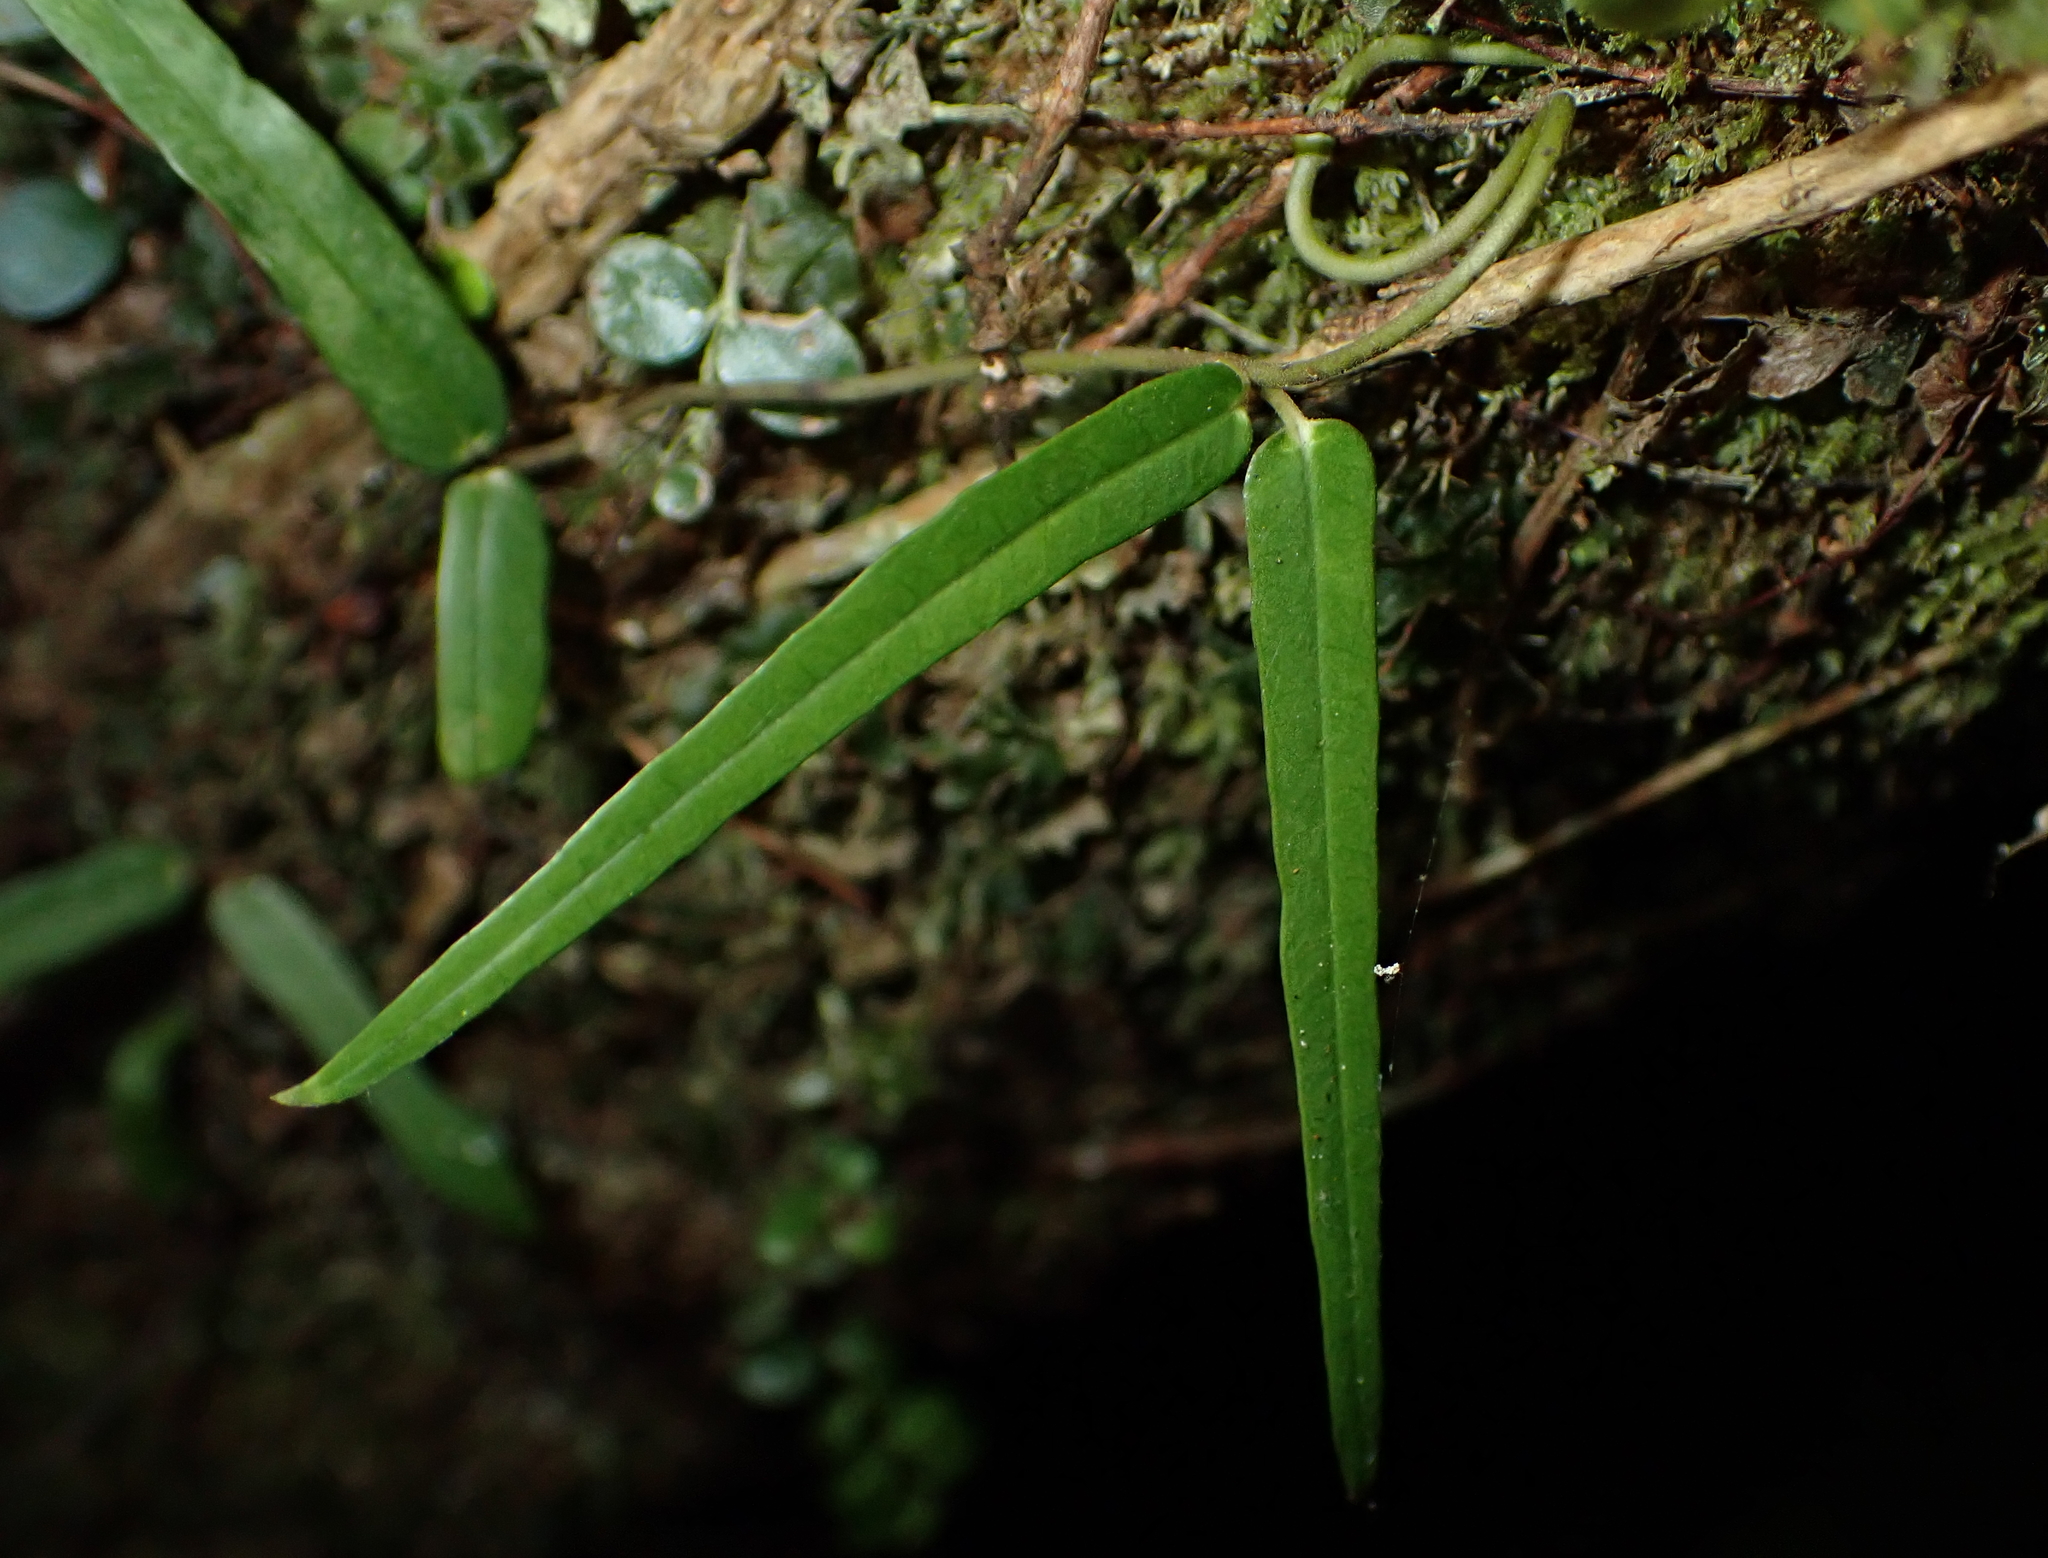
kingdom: Plantae
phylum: Tracheophyta
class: Magnoliopsida
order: Gentianales
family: Apocynaceae
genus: Parsonsia
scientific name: Parsonsia heterophylla
